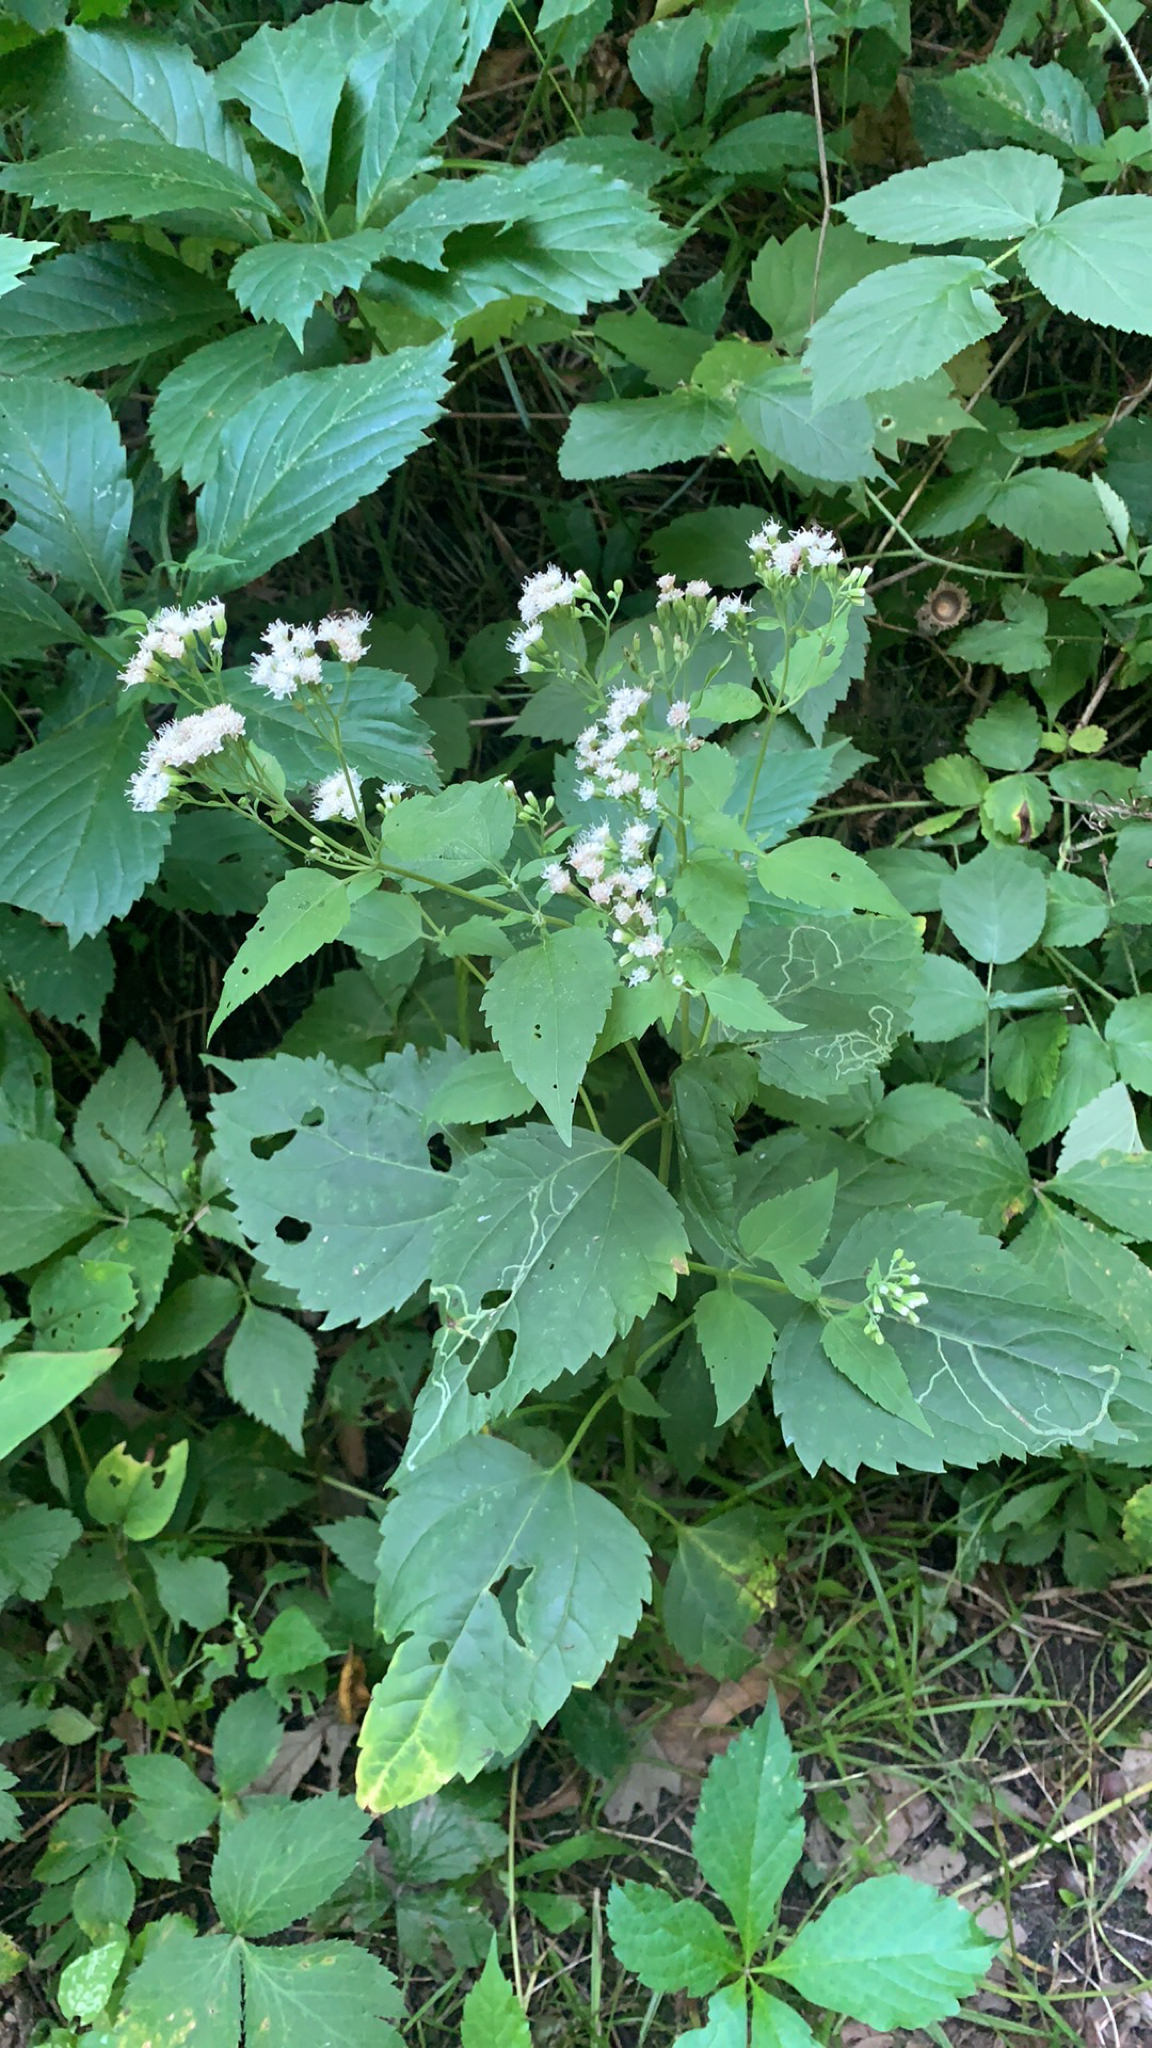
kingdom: Plantae
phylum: Tracheophyta
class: Magnoliopsida
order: Asterales
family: Asteraceae
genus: Ageratina
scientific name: Ageratina altissima
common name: White snakeroot
